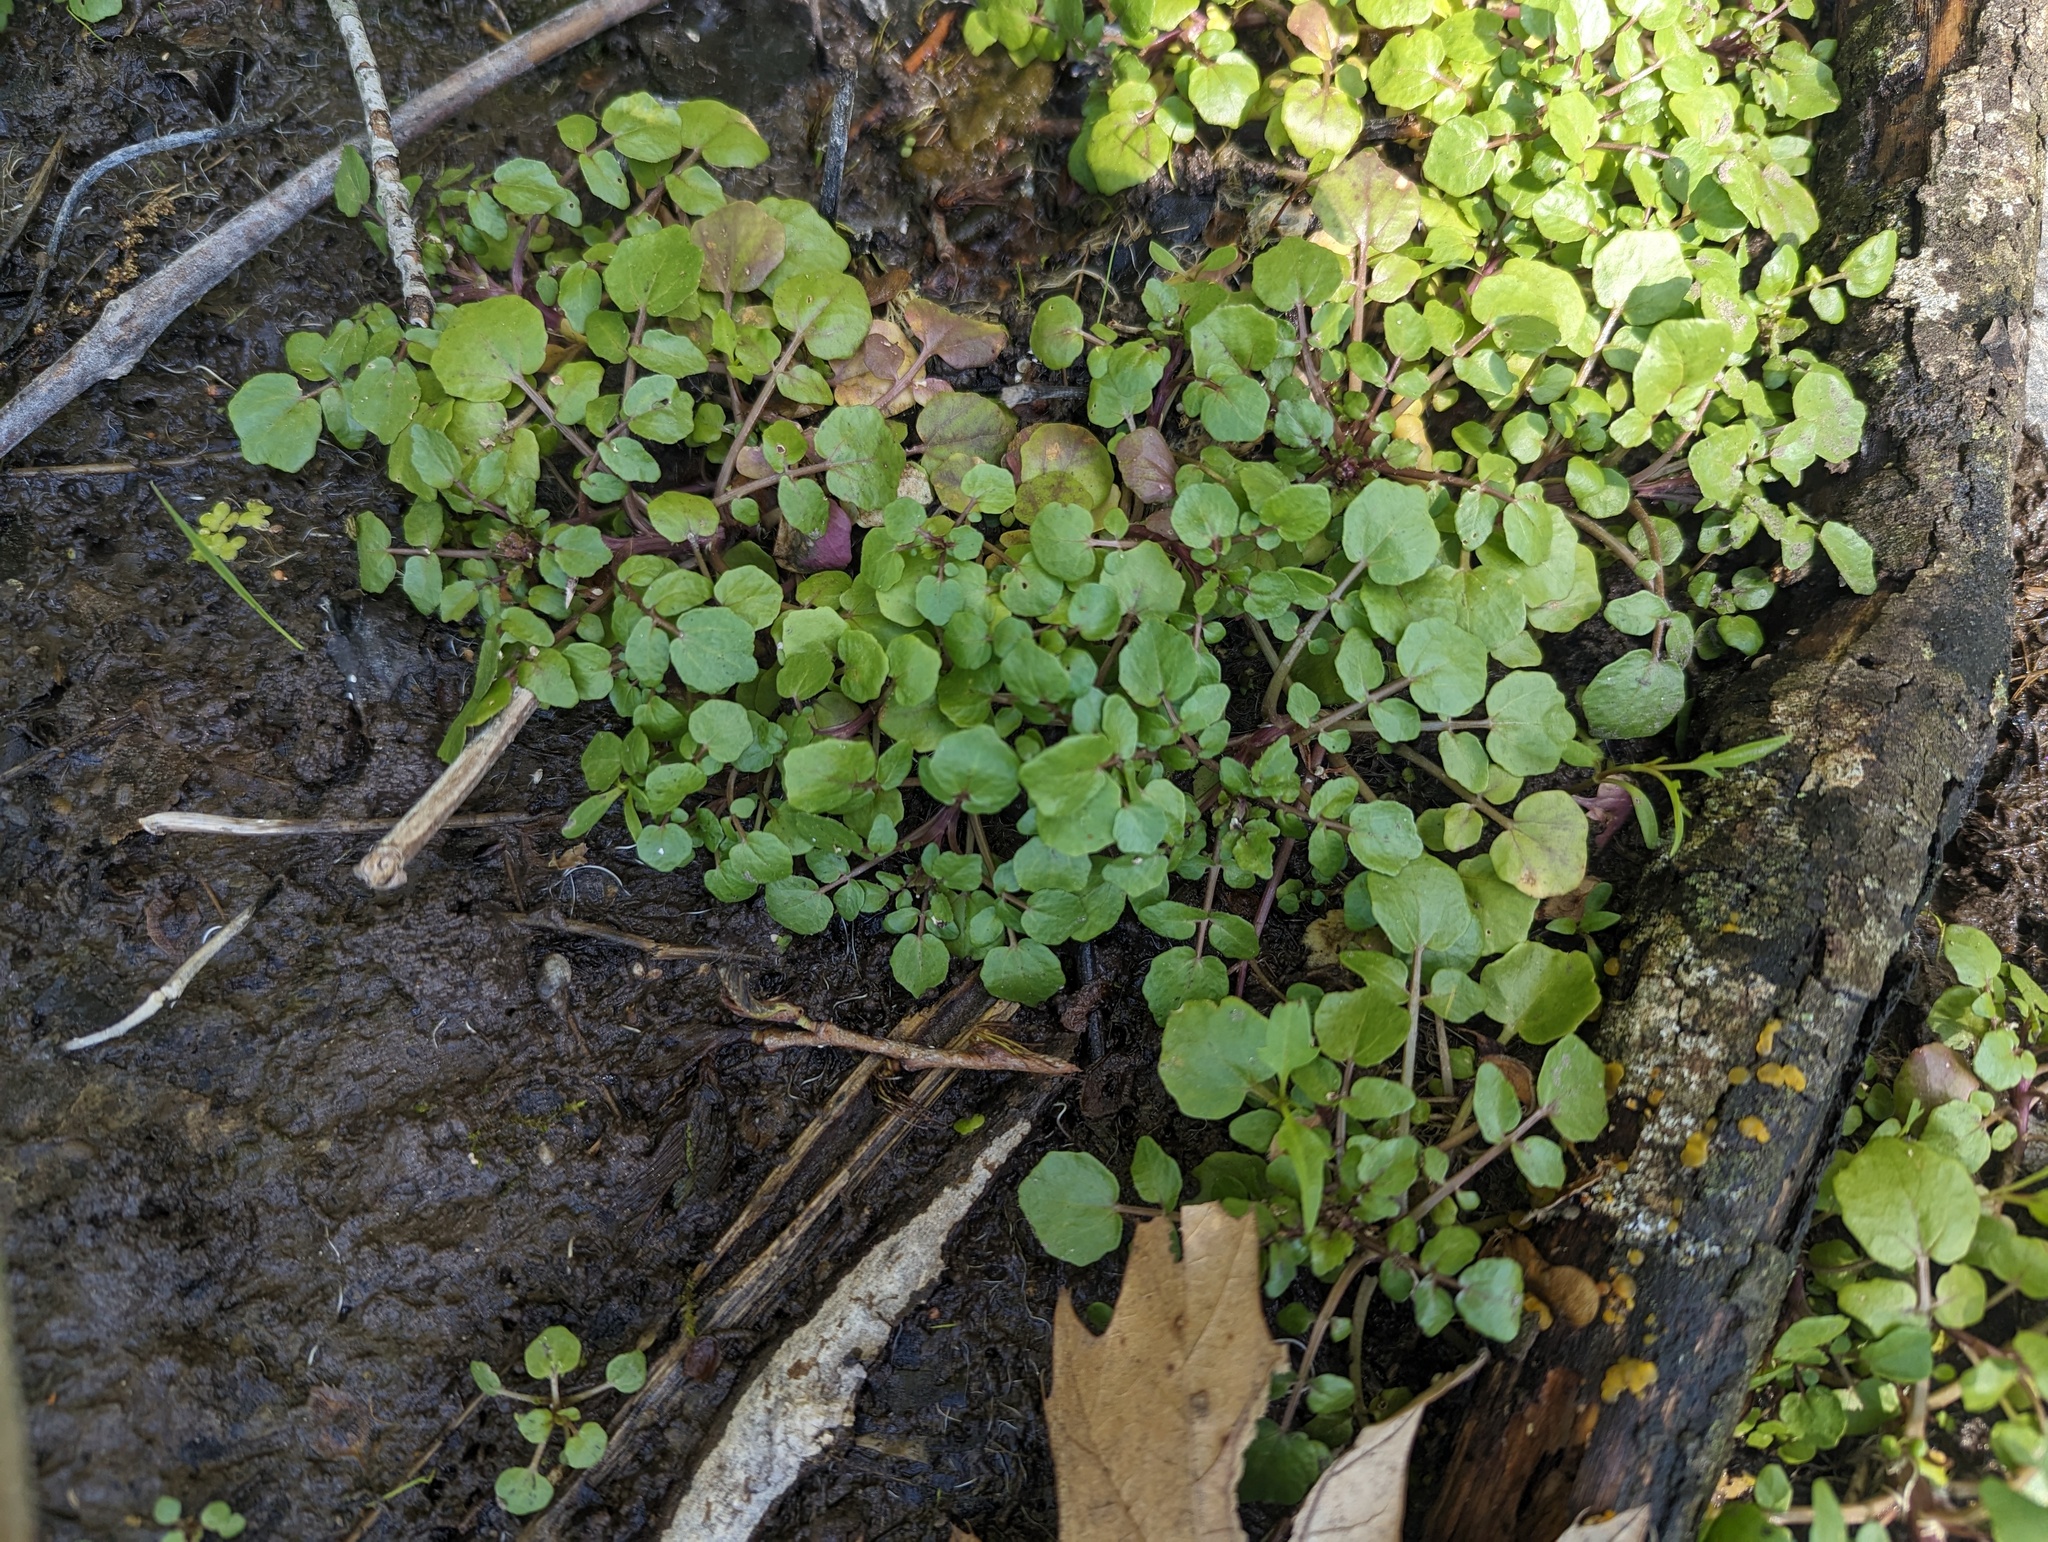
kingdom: Plantae
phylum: Tracheophyta
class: Magnoliopsida
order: Brassicales
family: Brassicaceae
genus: Nasturtium
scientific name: Nasturtium officinale
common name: Watercress
